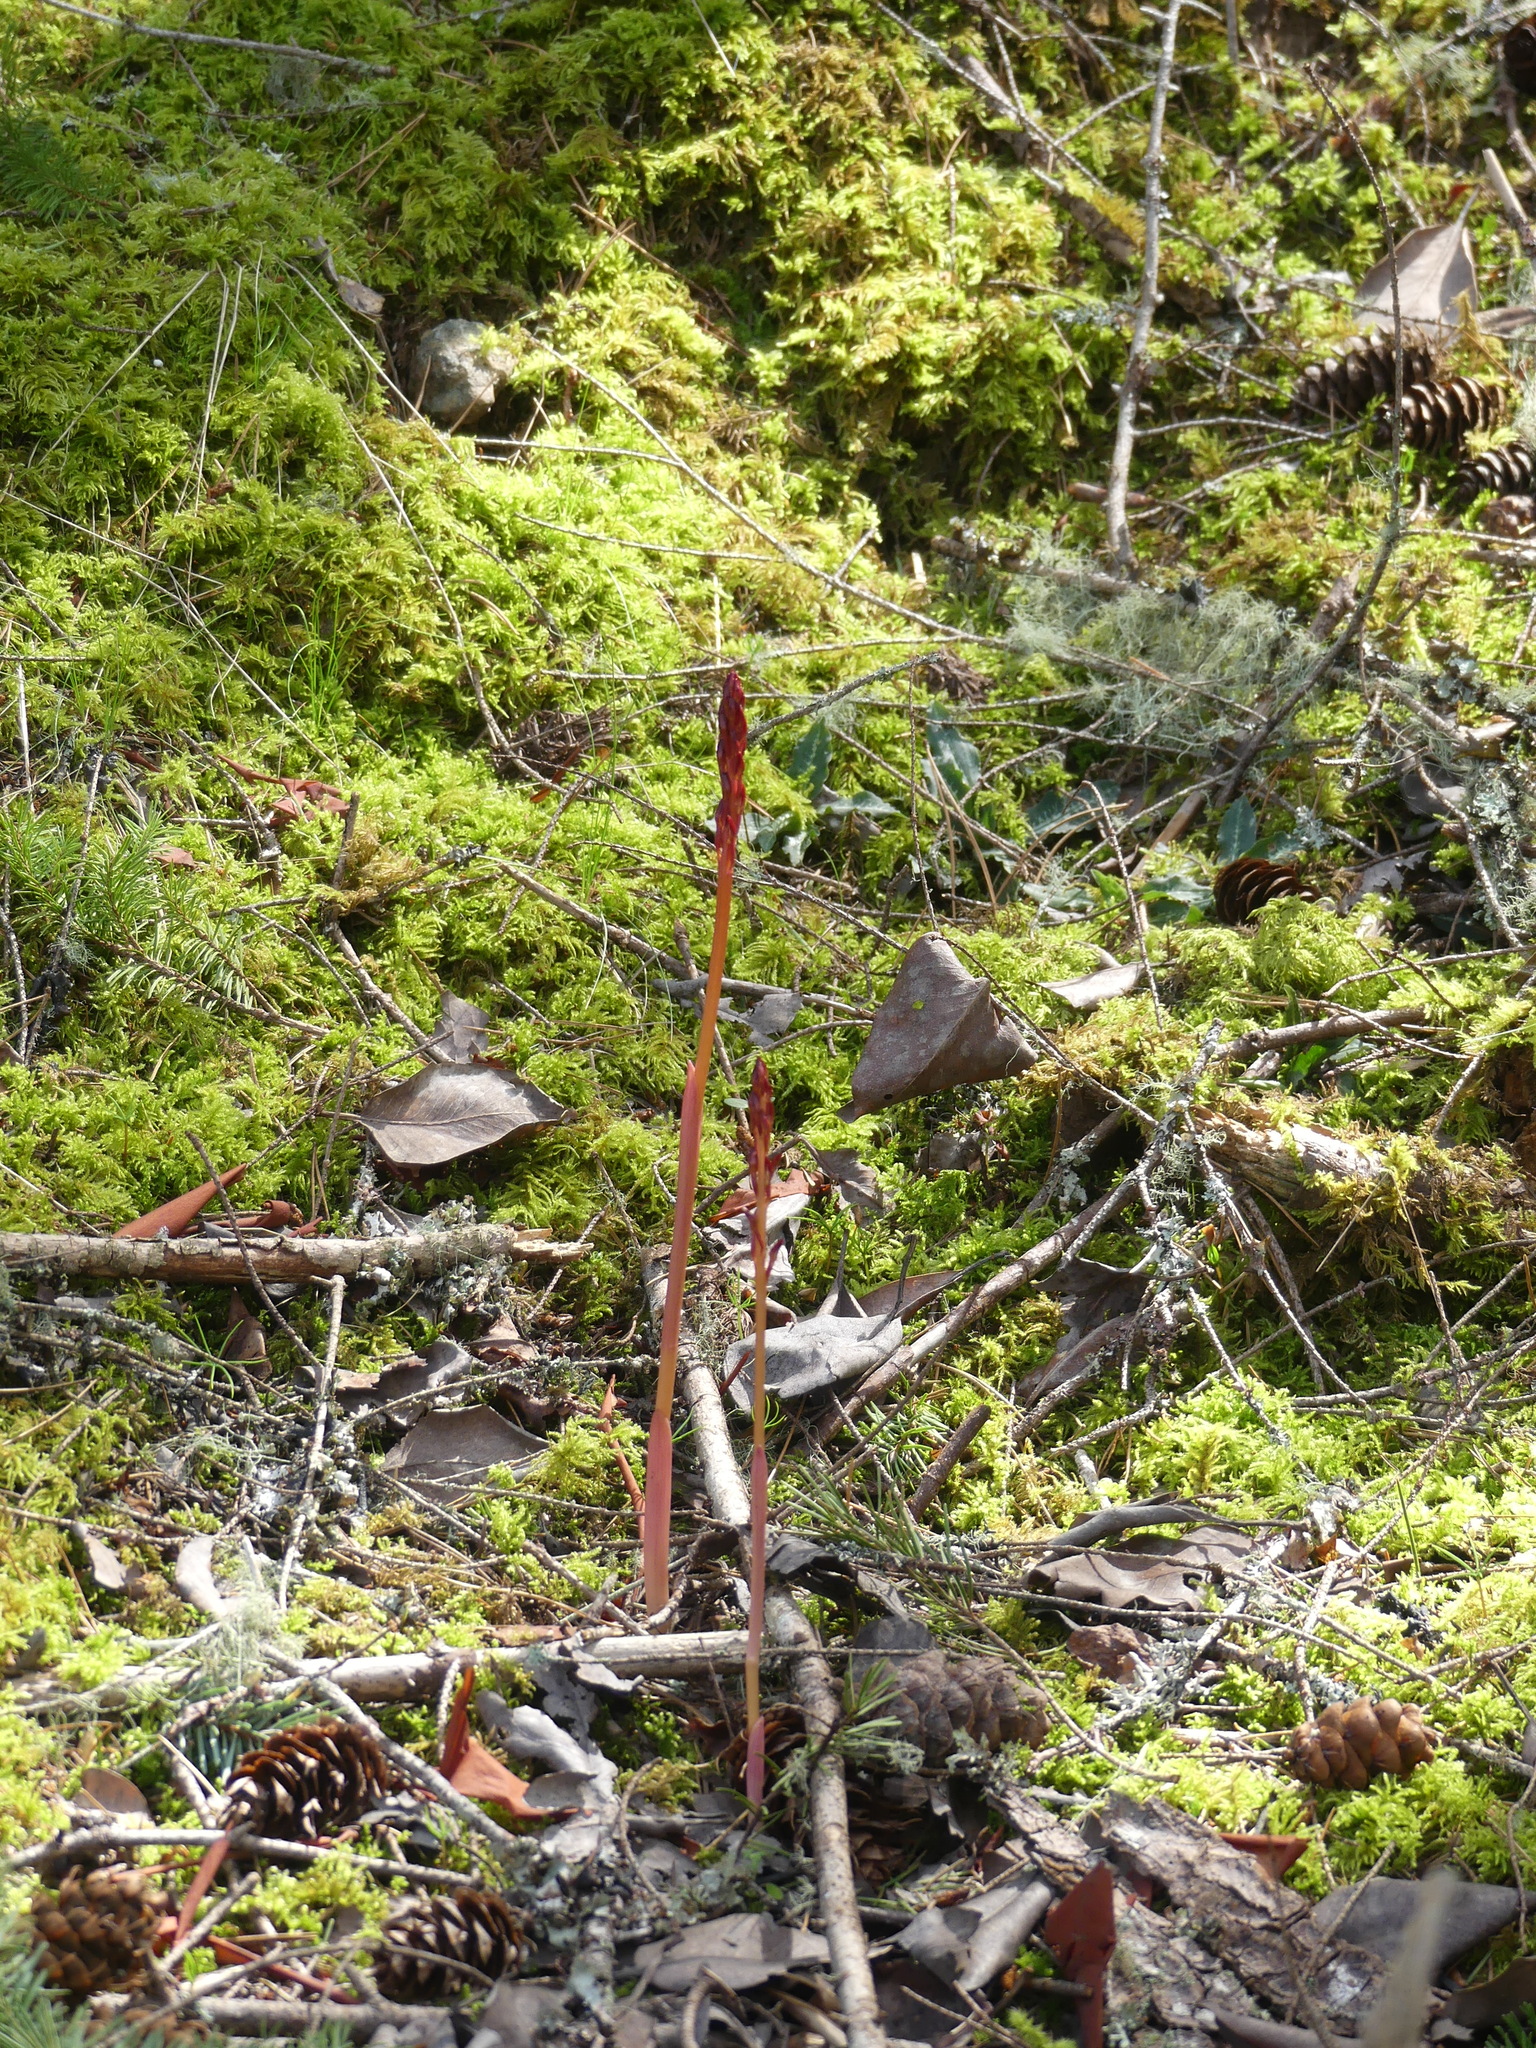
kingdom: Plantae
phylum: Tracheophyta
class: Liliopsida
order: Asparagales
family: Orchidaceae
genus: Corallorhiza
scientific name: Corallorhiza maculata
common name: Spotted coralroot
